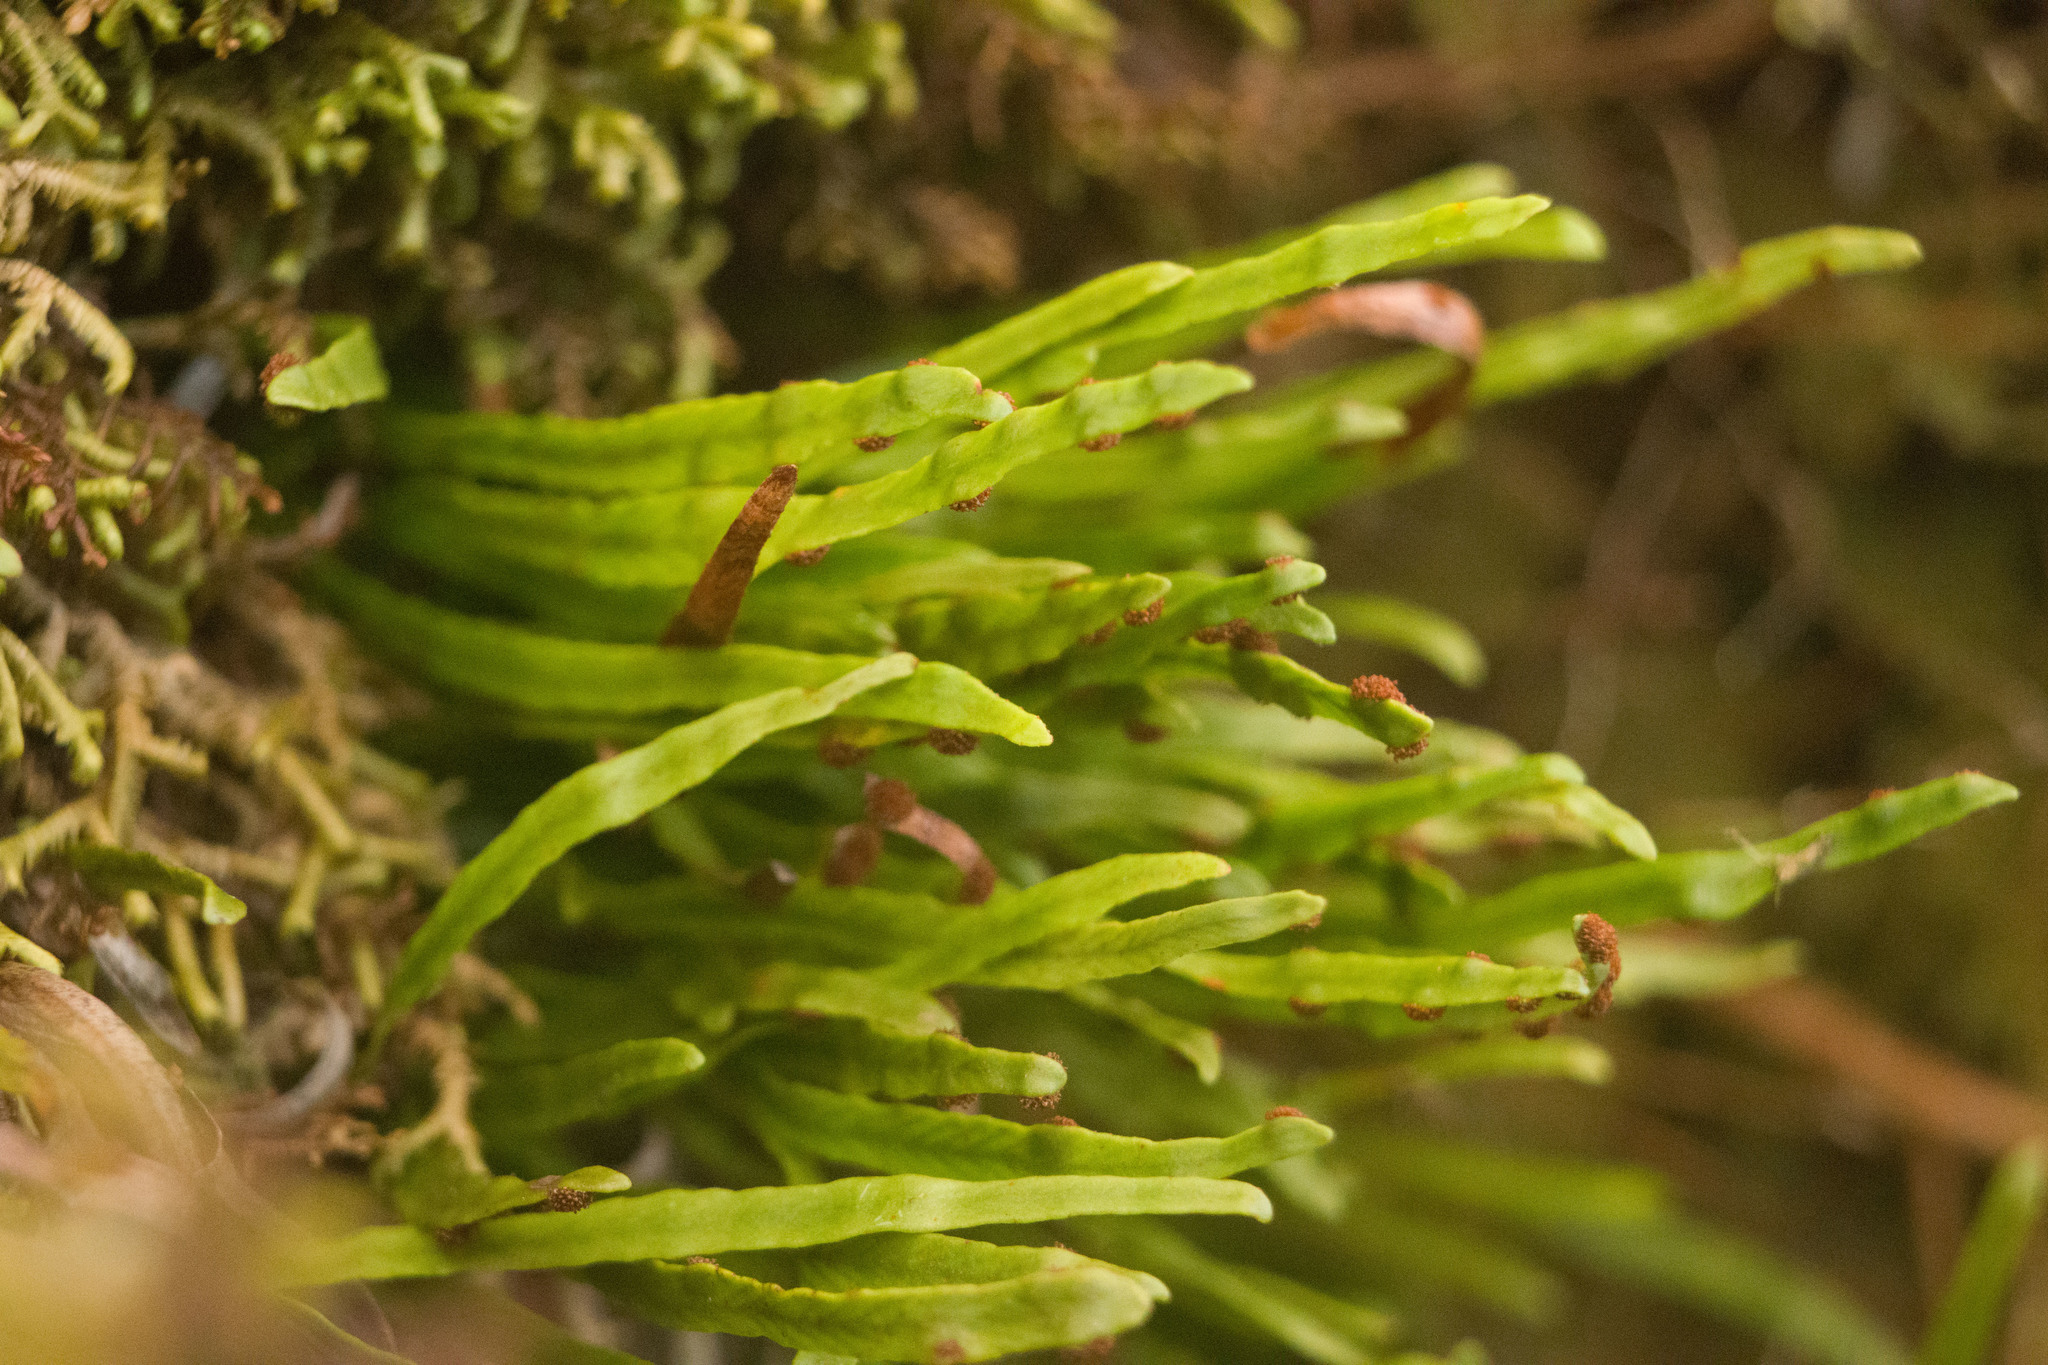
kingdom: Plantae
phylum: Tracheophyta
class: Polypodiopsida
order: Polypodiales
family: Polypodiaceae
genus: Adenophorus
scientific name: Adenophorus tenellus
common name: Kolokolo
